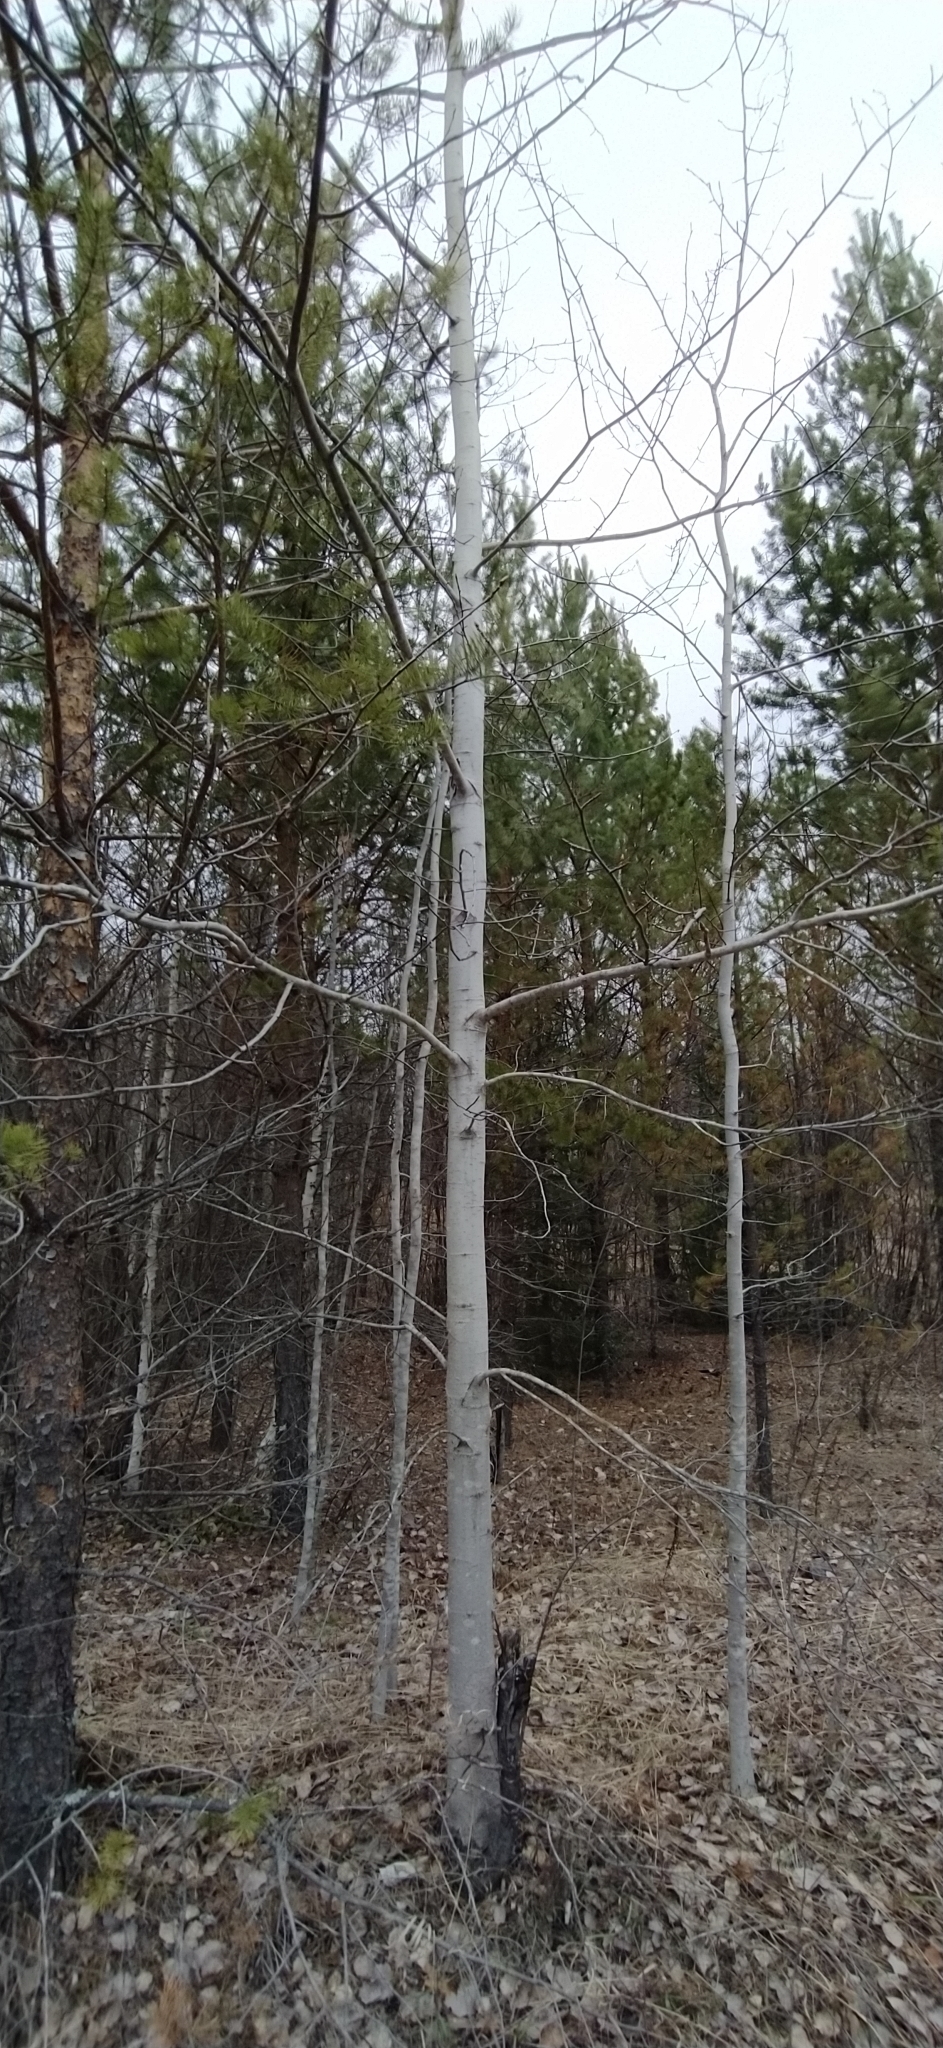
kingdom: Plantae
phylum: Tracheophyta
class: Magnoliopsida
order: Malpighiales
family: Salicaceae
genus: Populus
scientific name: Populus tremula
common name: European aspen
